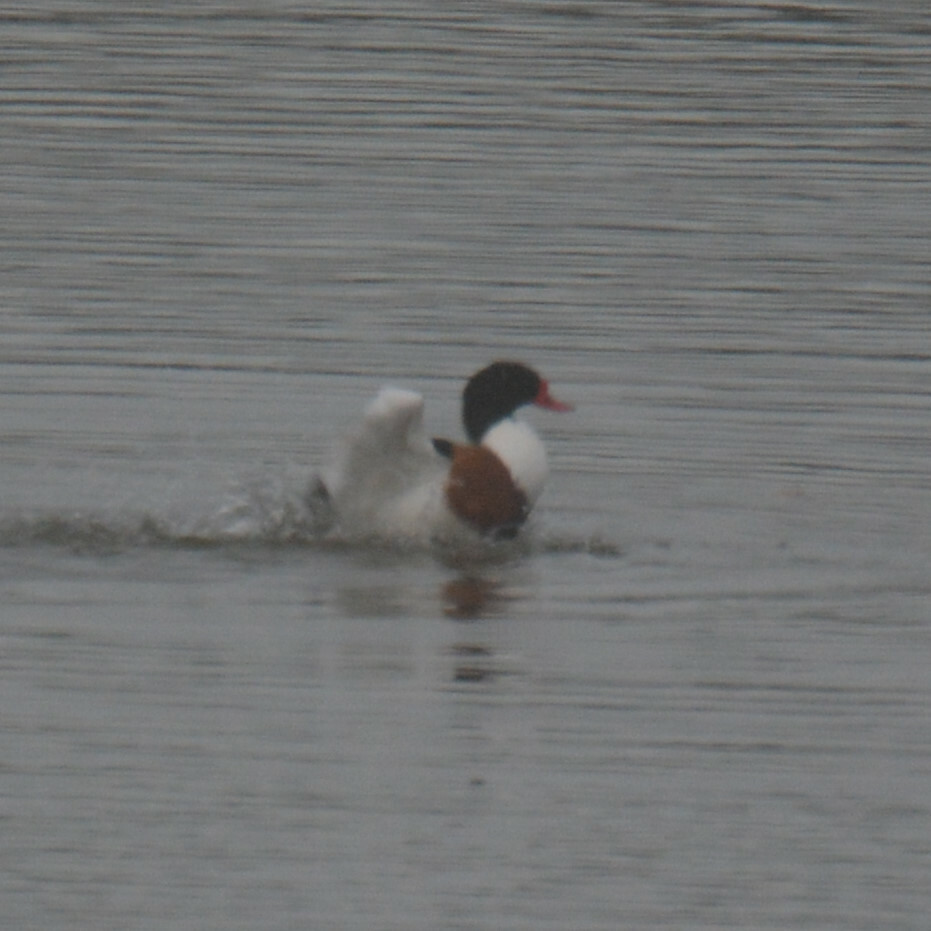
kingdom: Animalia
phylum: Chordata
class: Aves
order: Anseriformes
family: Anatidae
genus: Tadorna
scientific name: Tadorna tadorna
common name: Common shelduck
